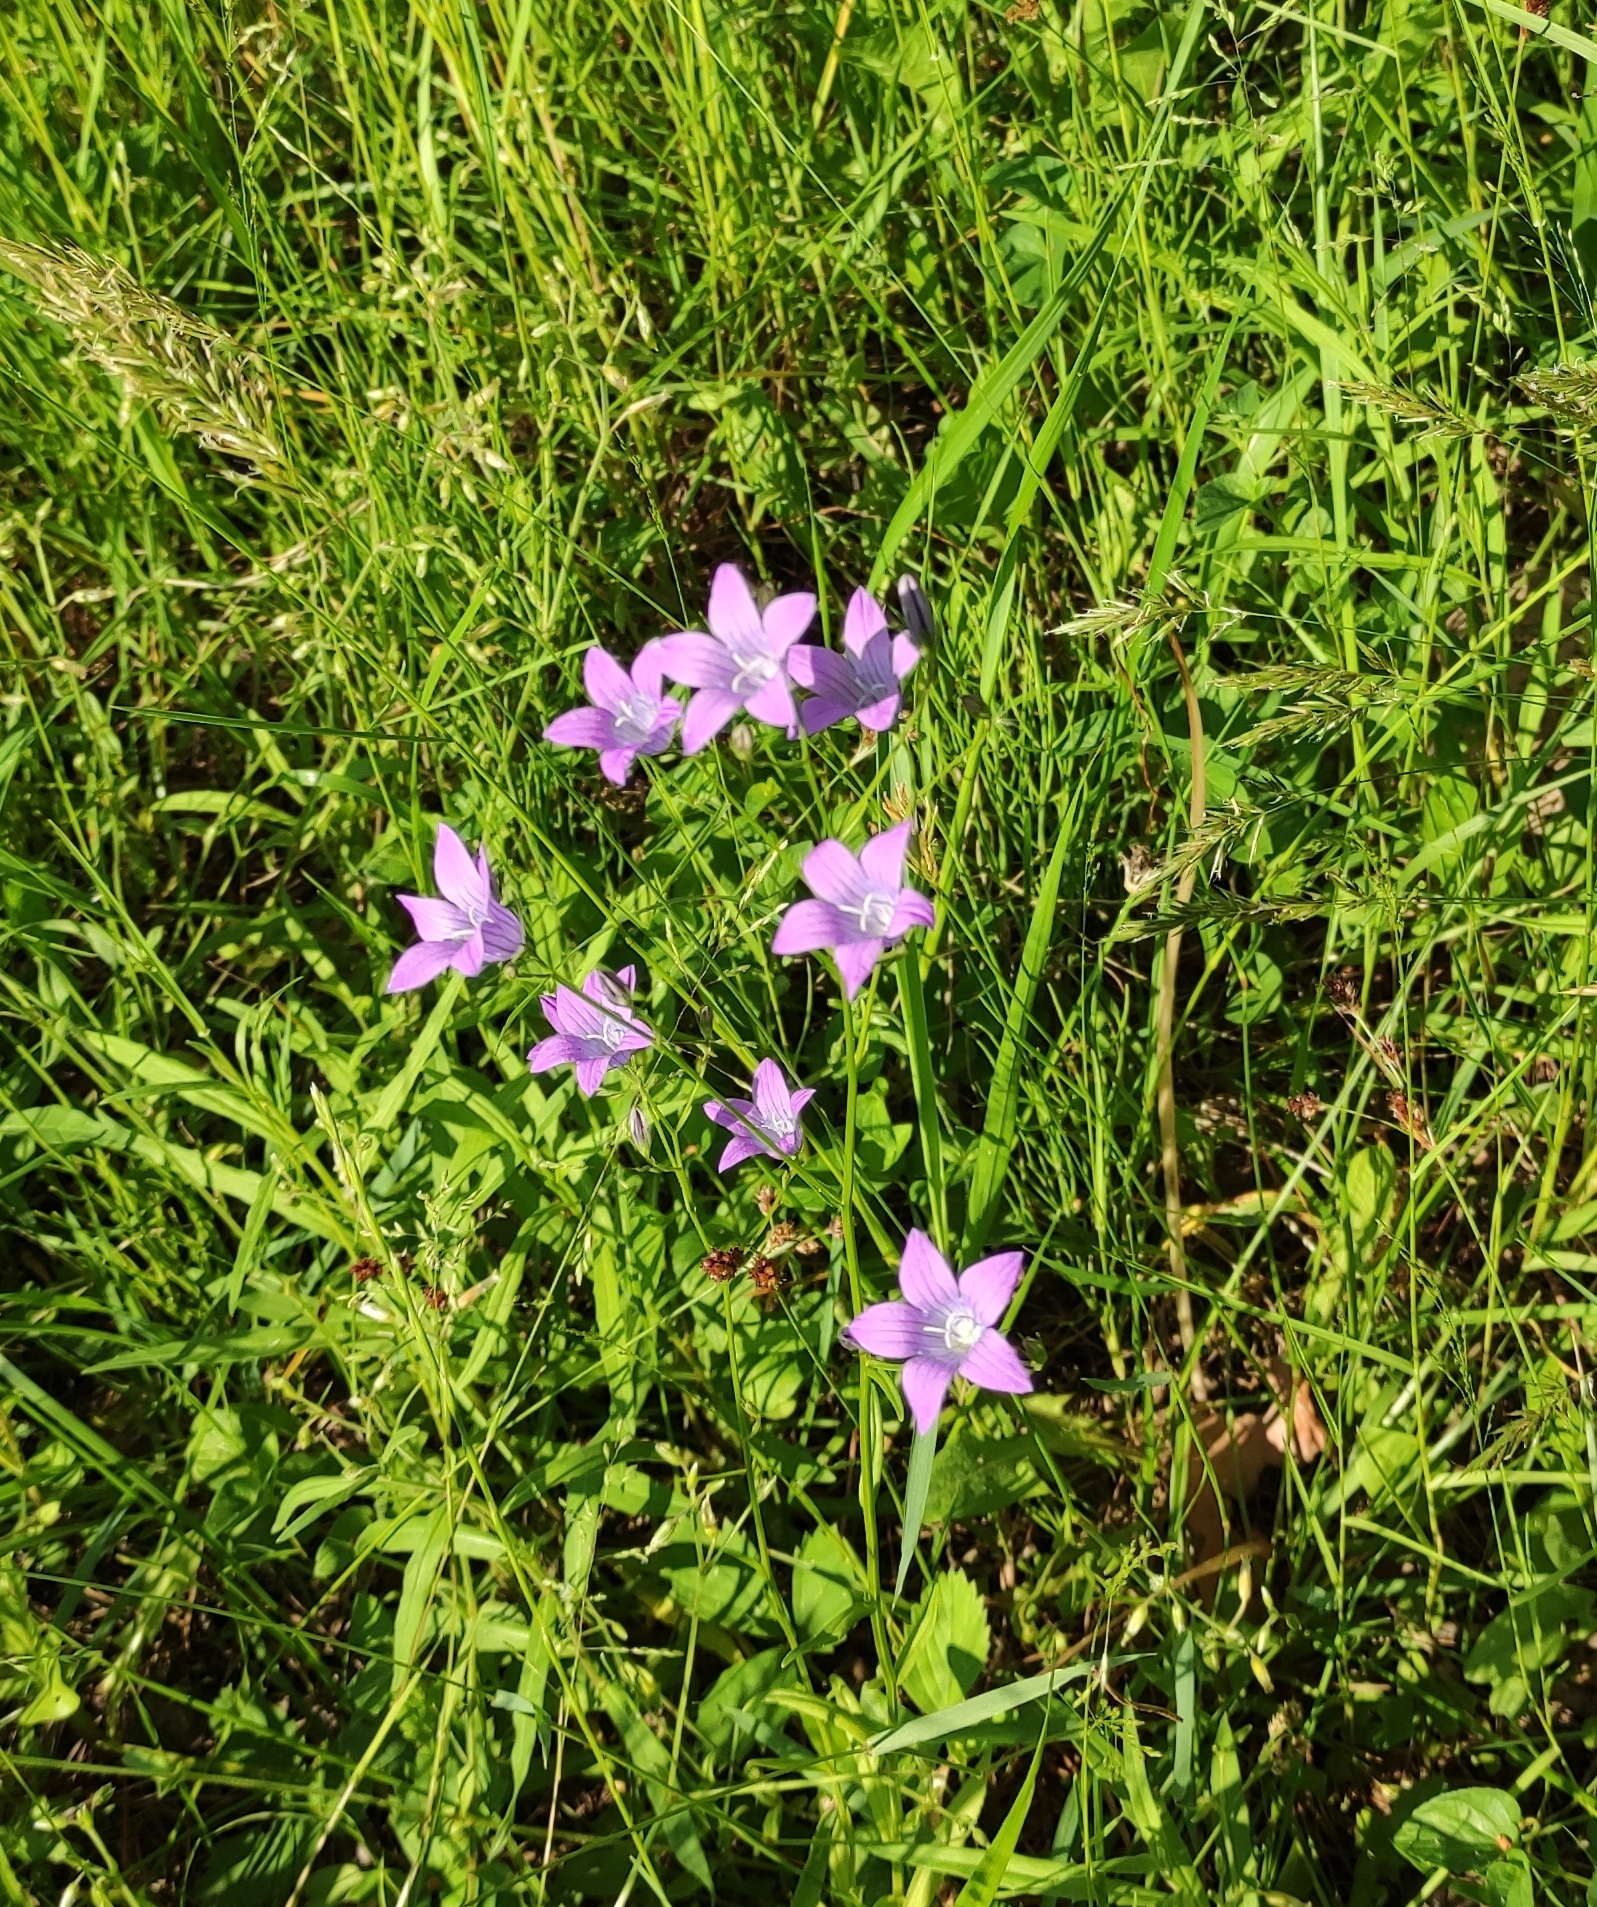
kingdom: Plantae
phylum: Tracheophyta
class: Magnoliopsida
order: Asterales
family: Campanulaceae
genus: Campanula
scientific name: Campanula patula
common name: Spreading bellflower
